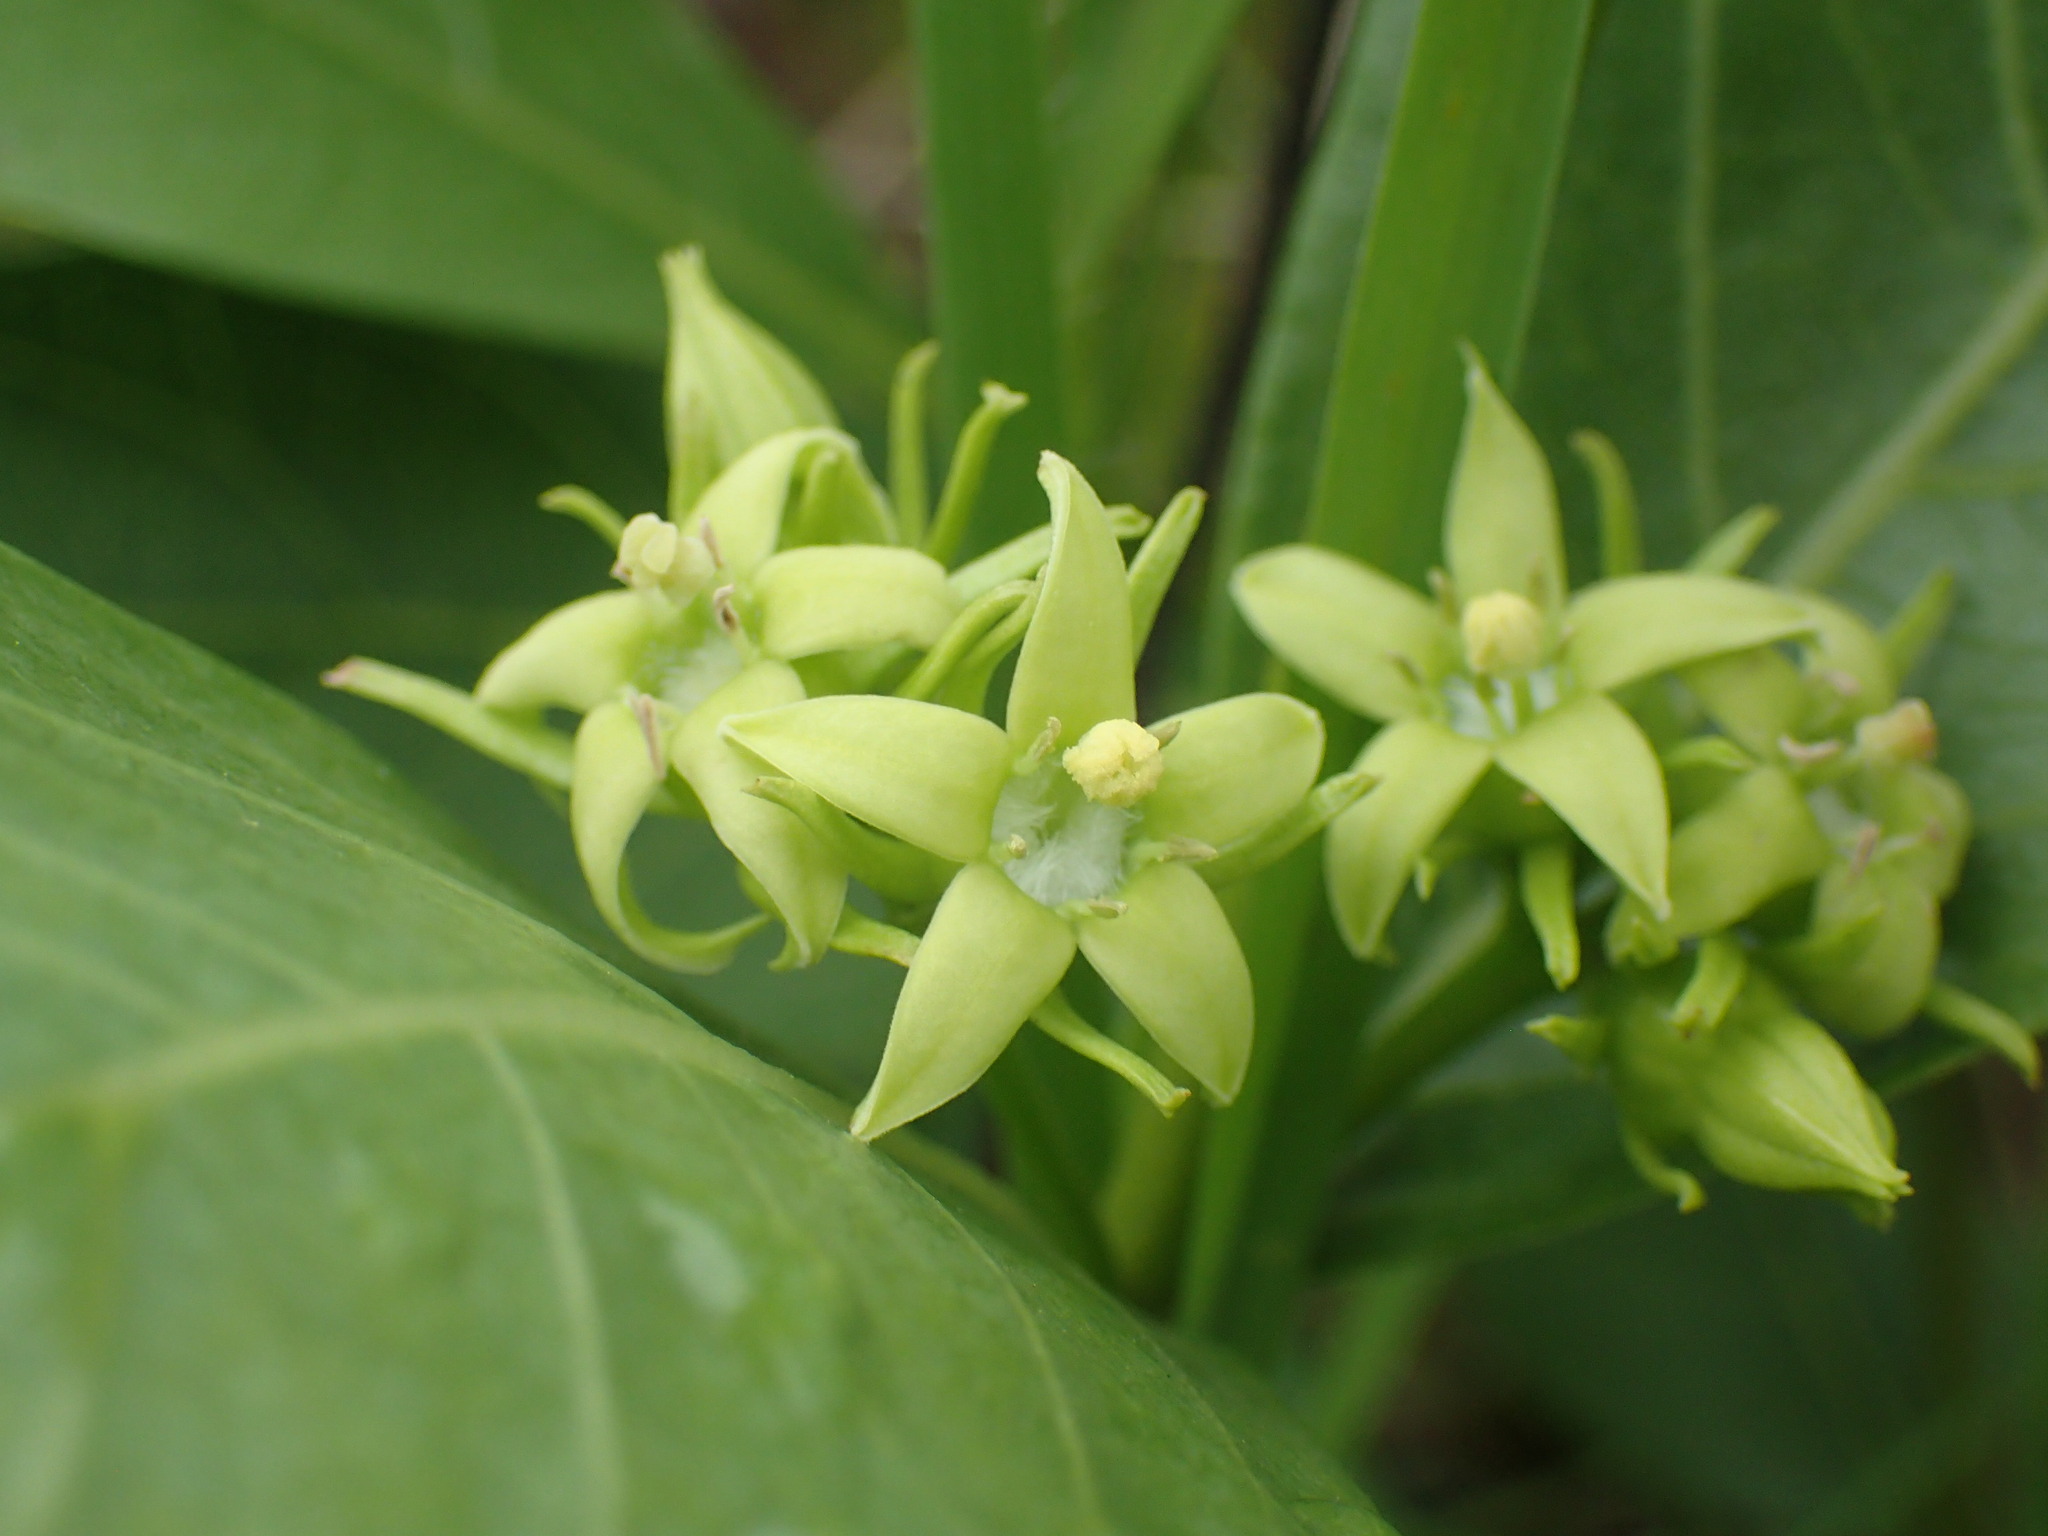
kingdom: Plantae
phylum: Tracheophyta
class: Magnoliopsida
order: Gentianales
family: Rubiaceae
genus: Vangueria
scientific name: Vangueria venosa
